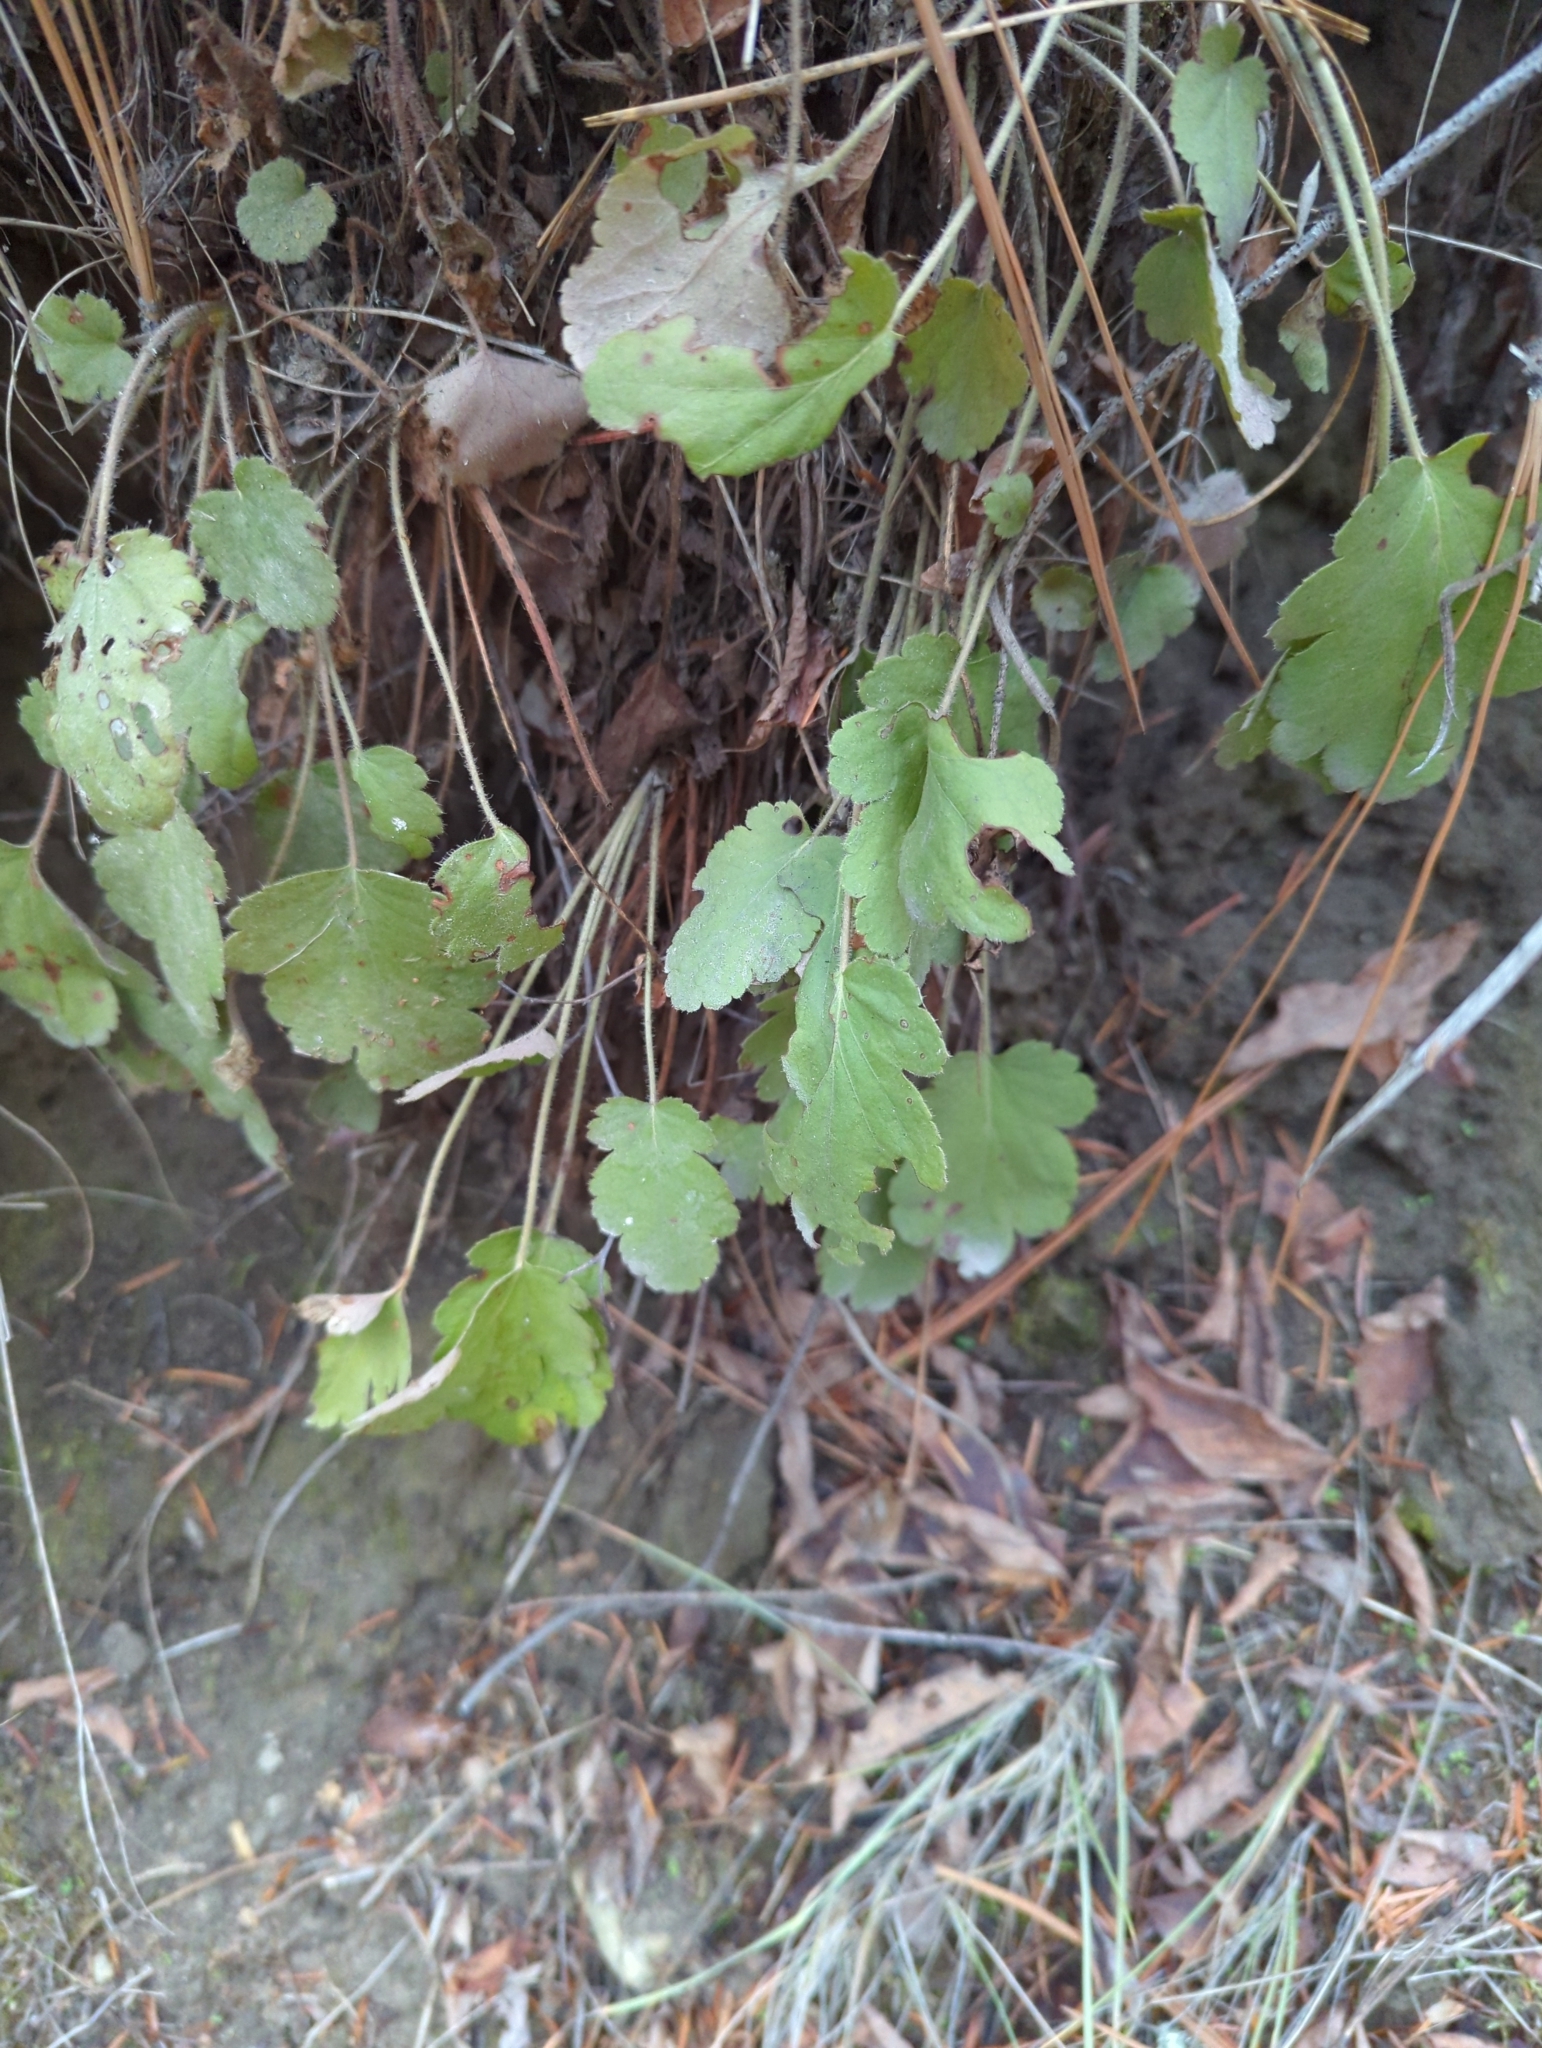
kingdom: Plantae
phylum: Tracheophyta
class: Magnoliopsida
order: Saxifragales
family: Saxifragaceae
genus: Heuchera
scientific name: Heuchera cylindrica
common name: Mat alumroot
